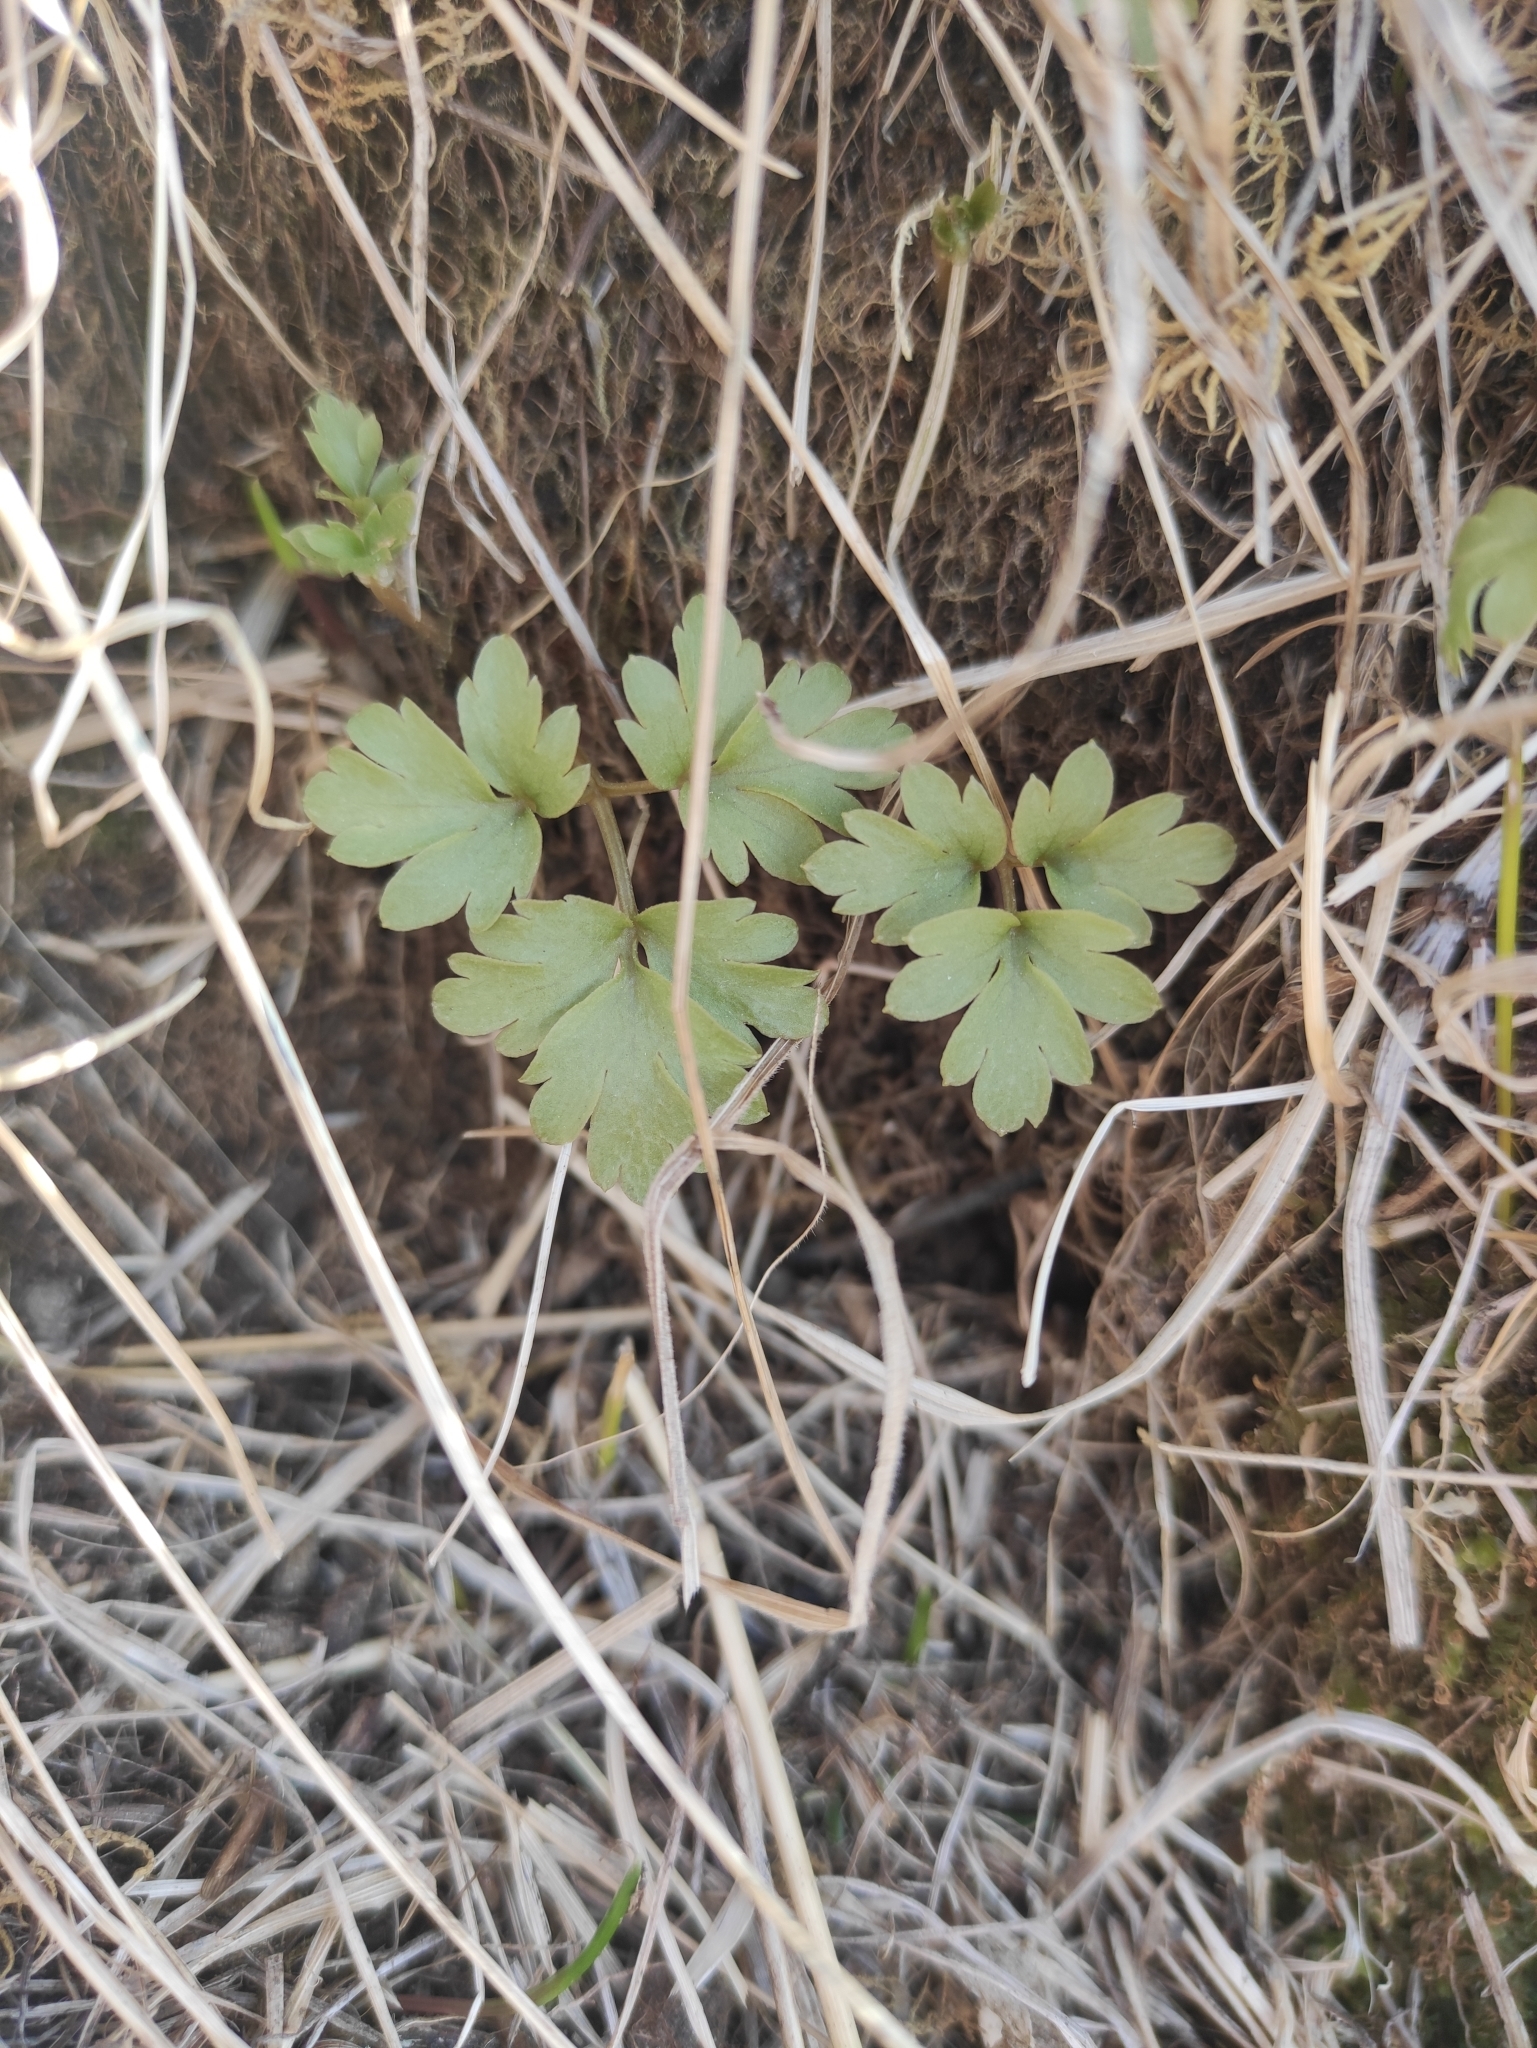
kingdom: Plantae
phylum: Tracheophyta
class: Magnoliopsida
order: Dipsacales
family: Viburnaceae
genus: Adoxa
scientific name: Adoxa moschatellina
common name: Moschatel
